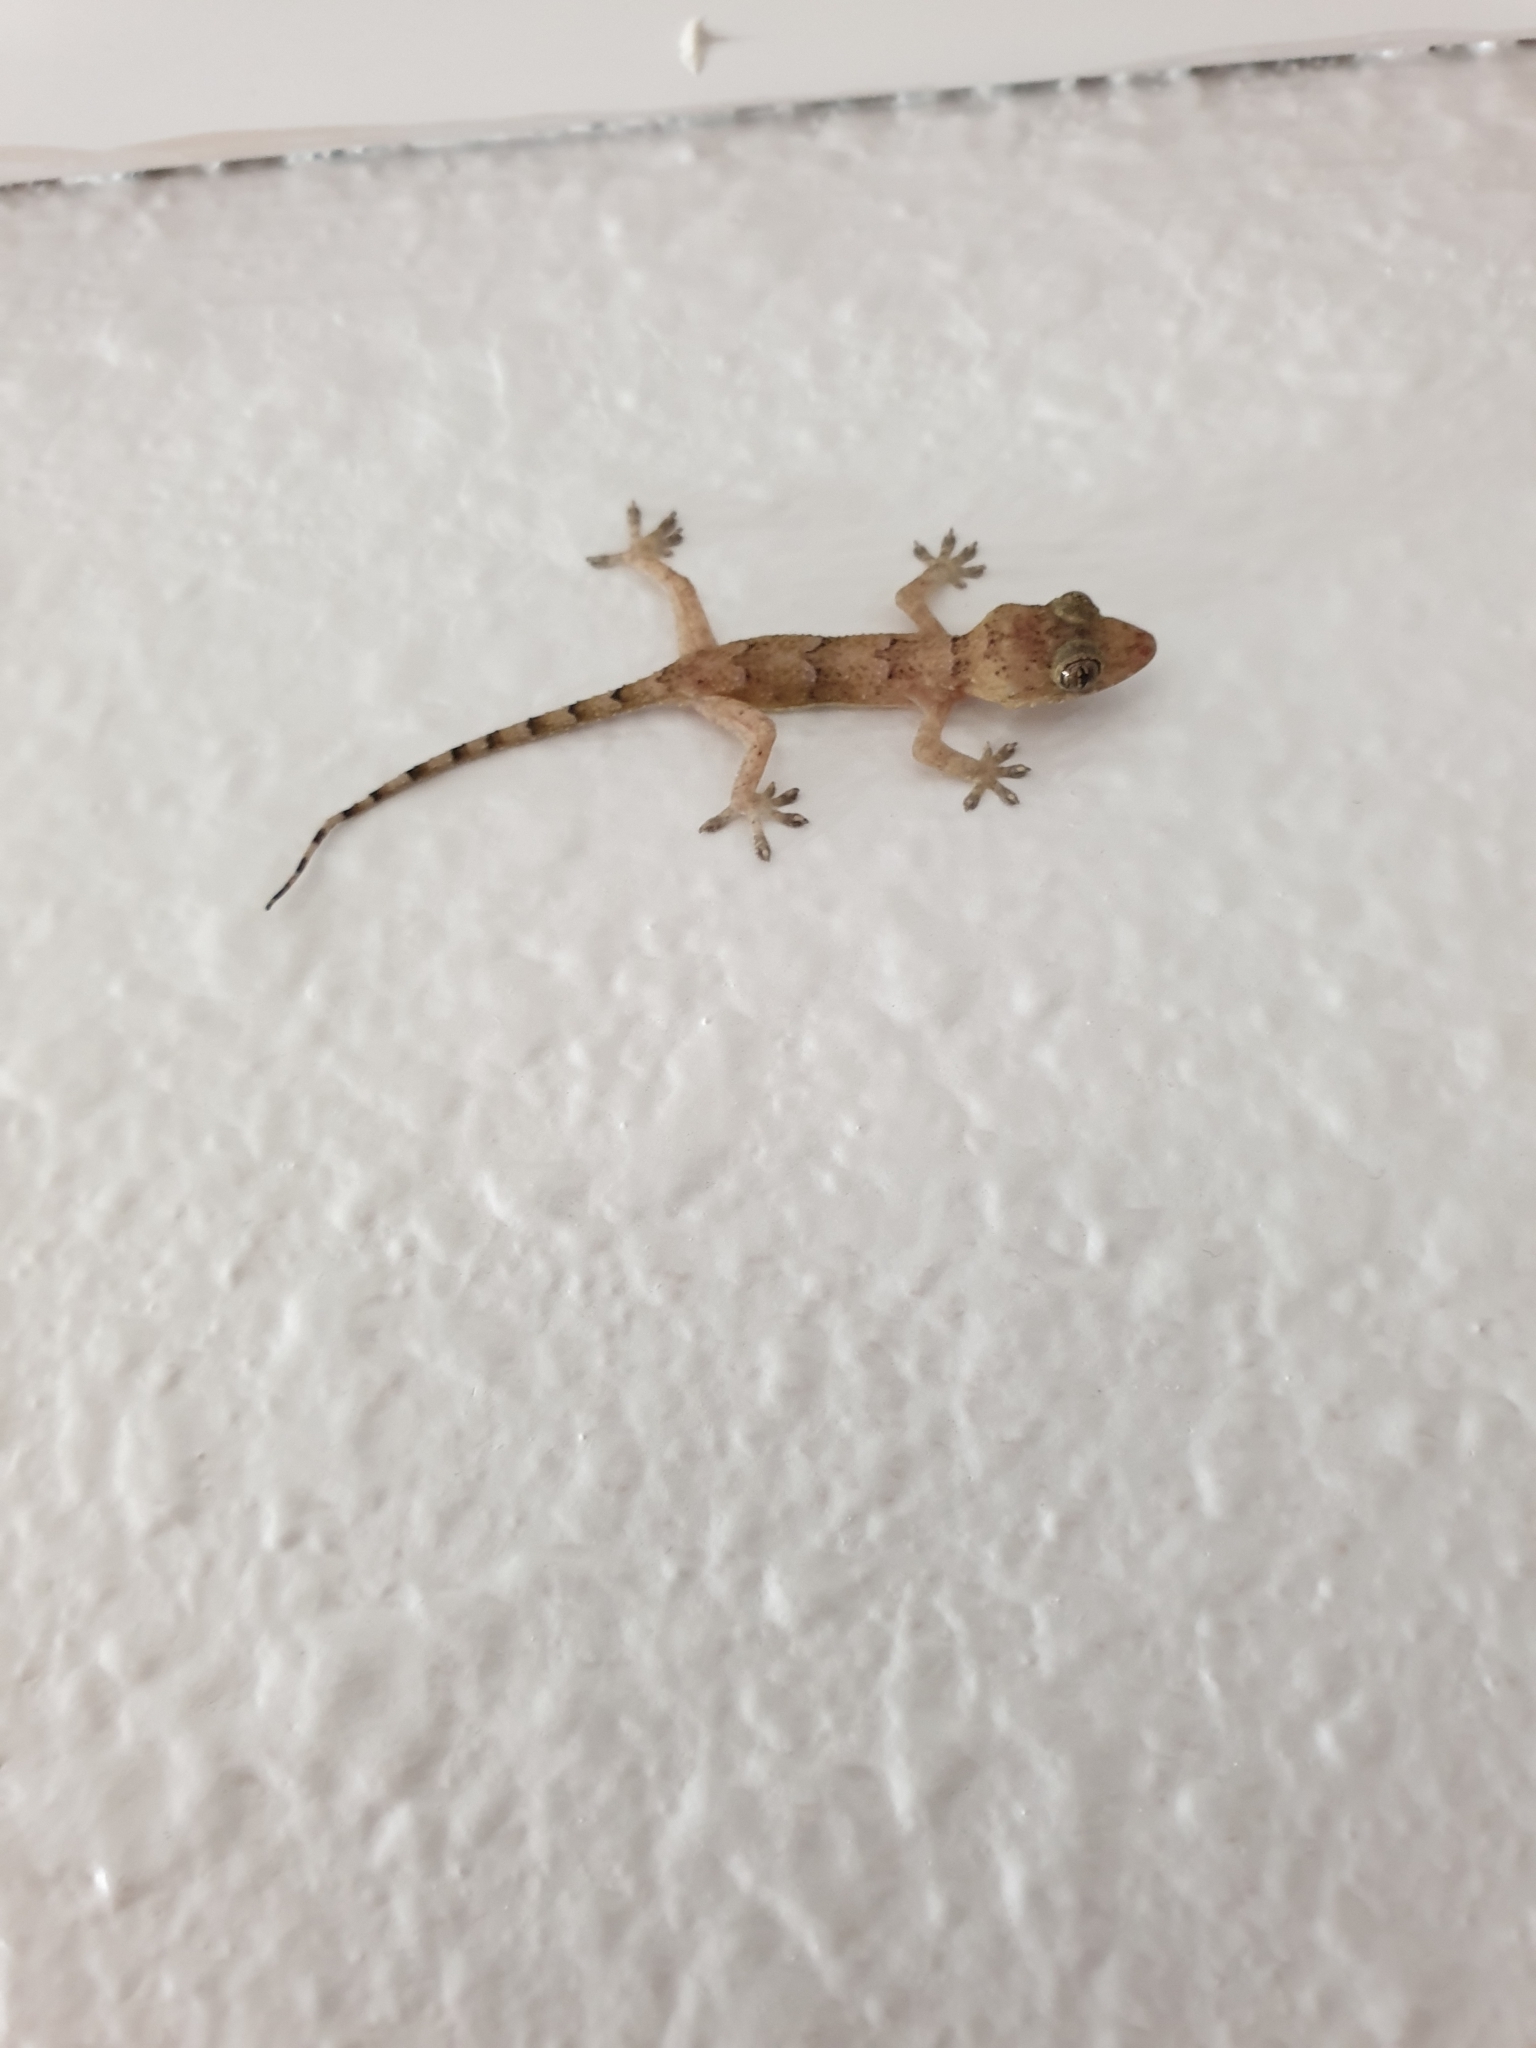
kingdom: Animalia
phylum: Chordata
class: Squamata
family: Gekkonidae
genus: Hemidactylus
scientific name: Hemidactylus mabouia
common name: House gecko
